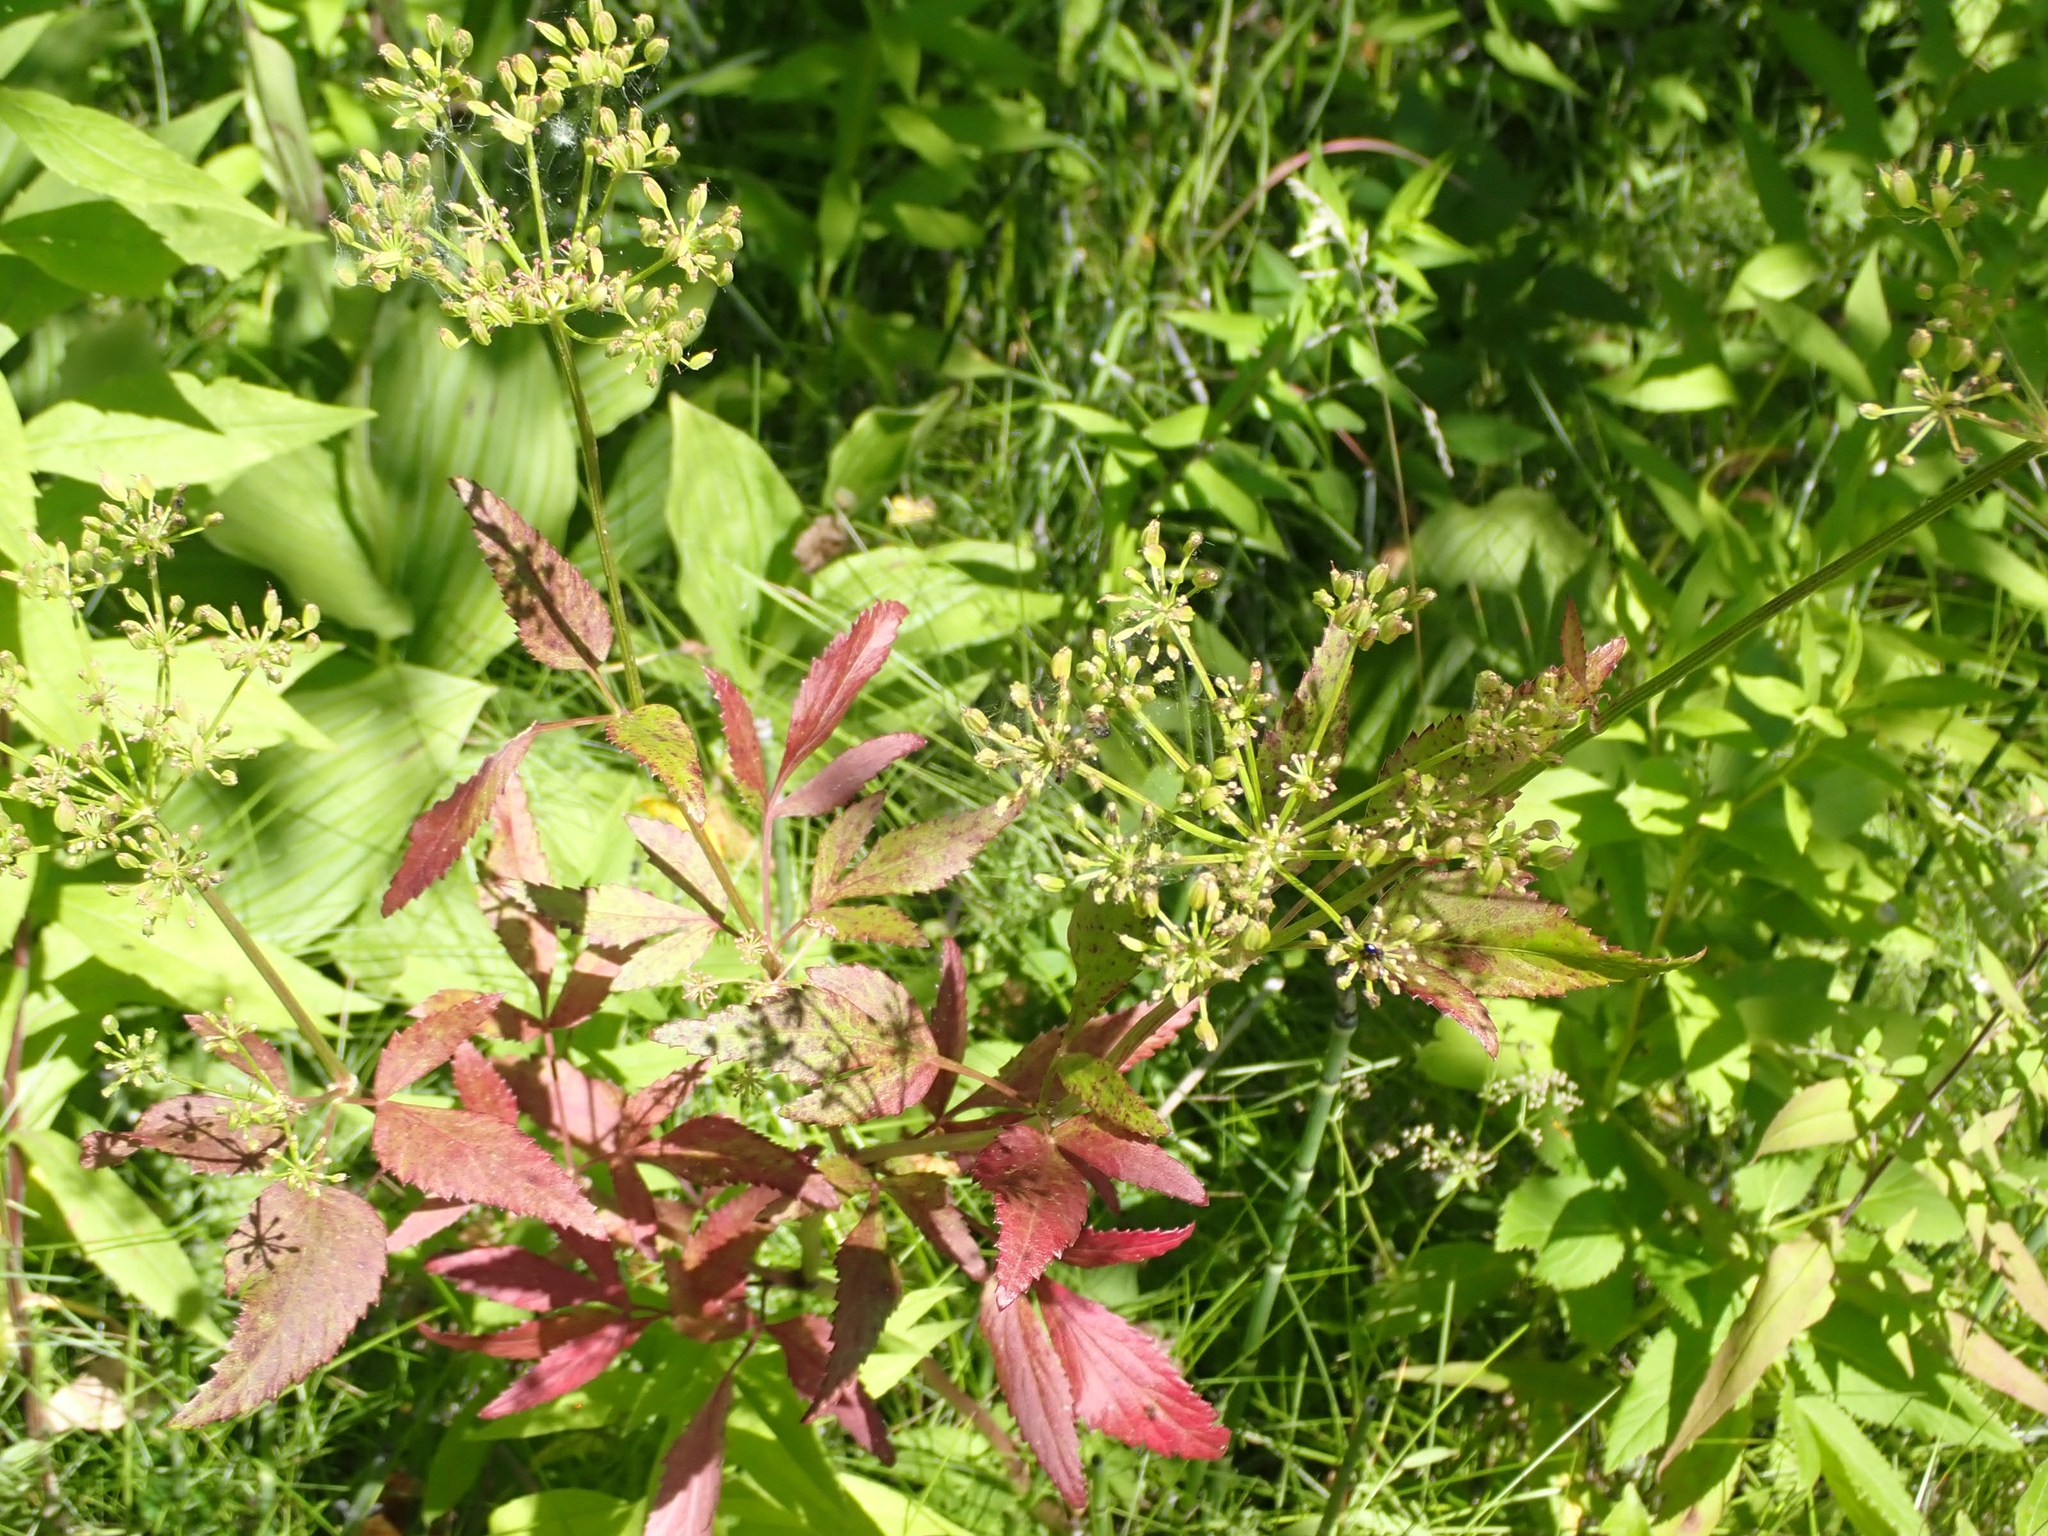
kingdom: Plantae
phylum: Tracheophyta
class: Magnoliopsida
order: Apiales
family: Apiaceae
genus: Zizia
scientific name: Zizia aurea
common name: Golden alexanders
